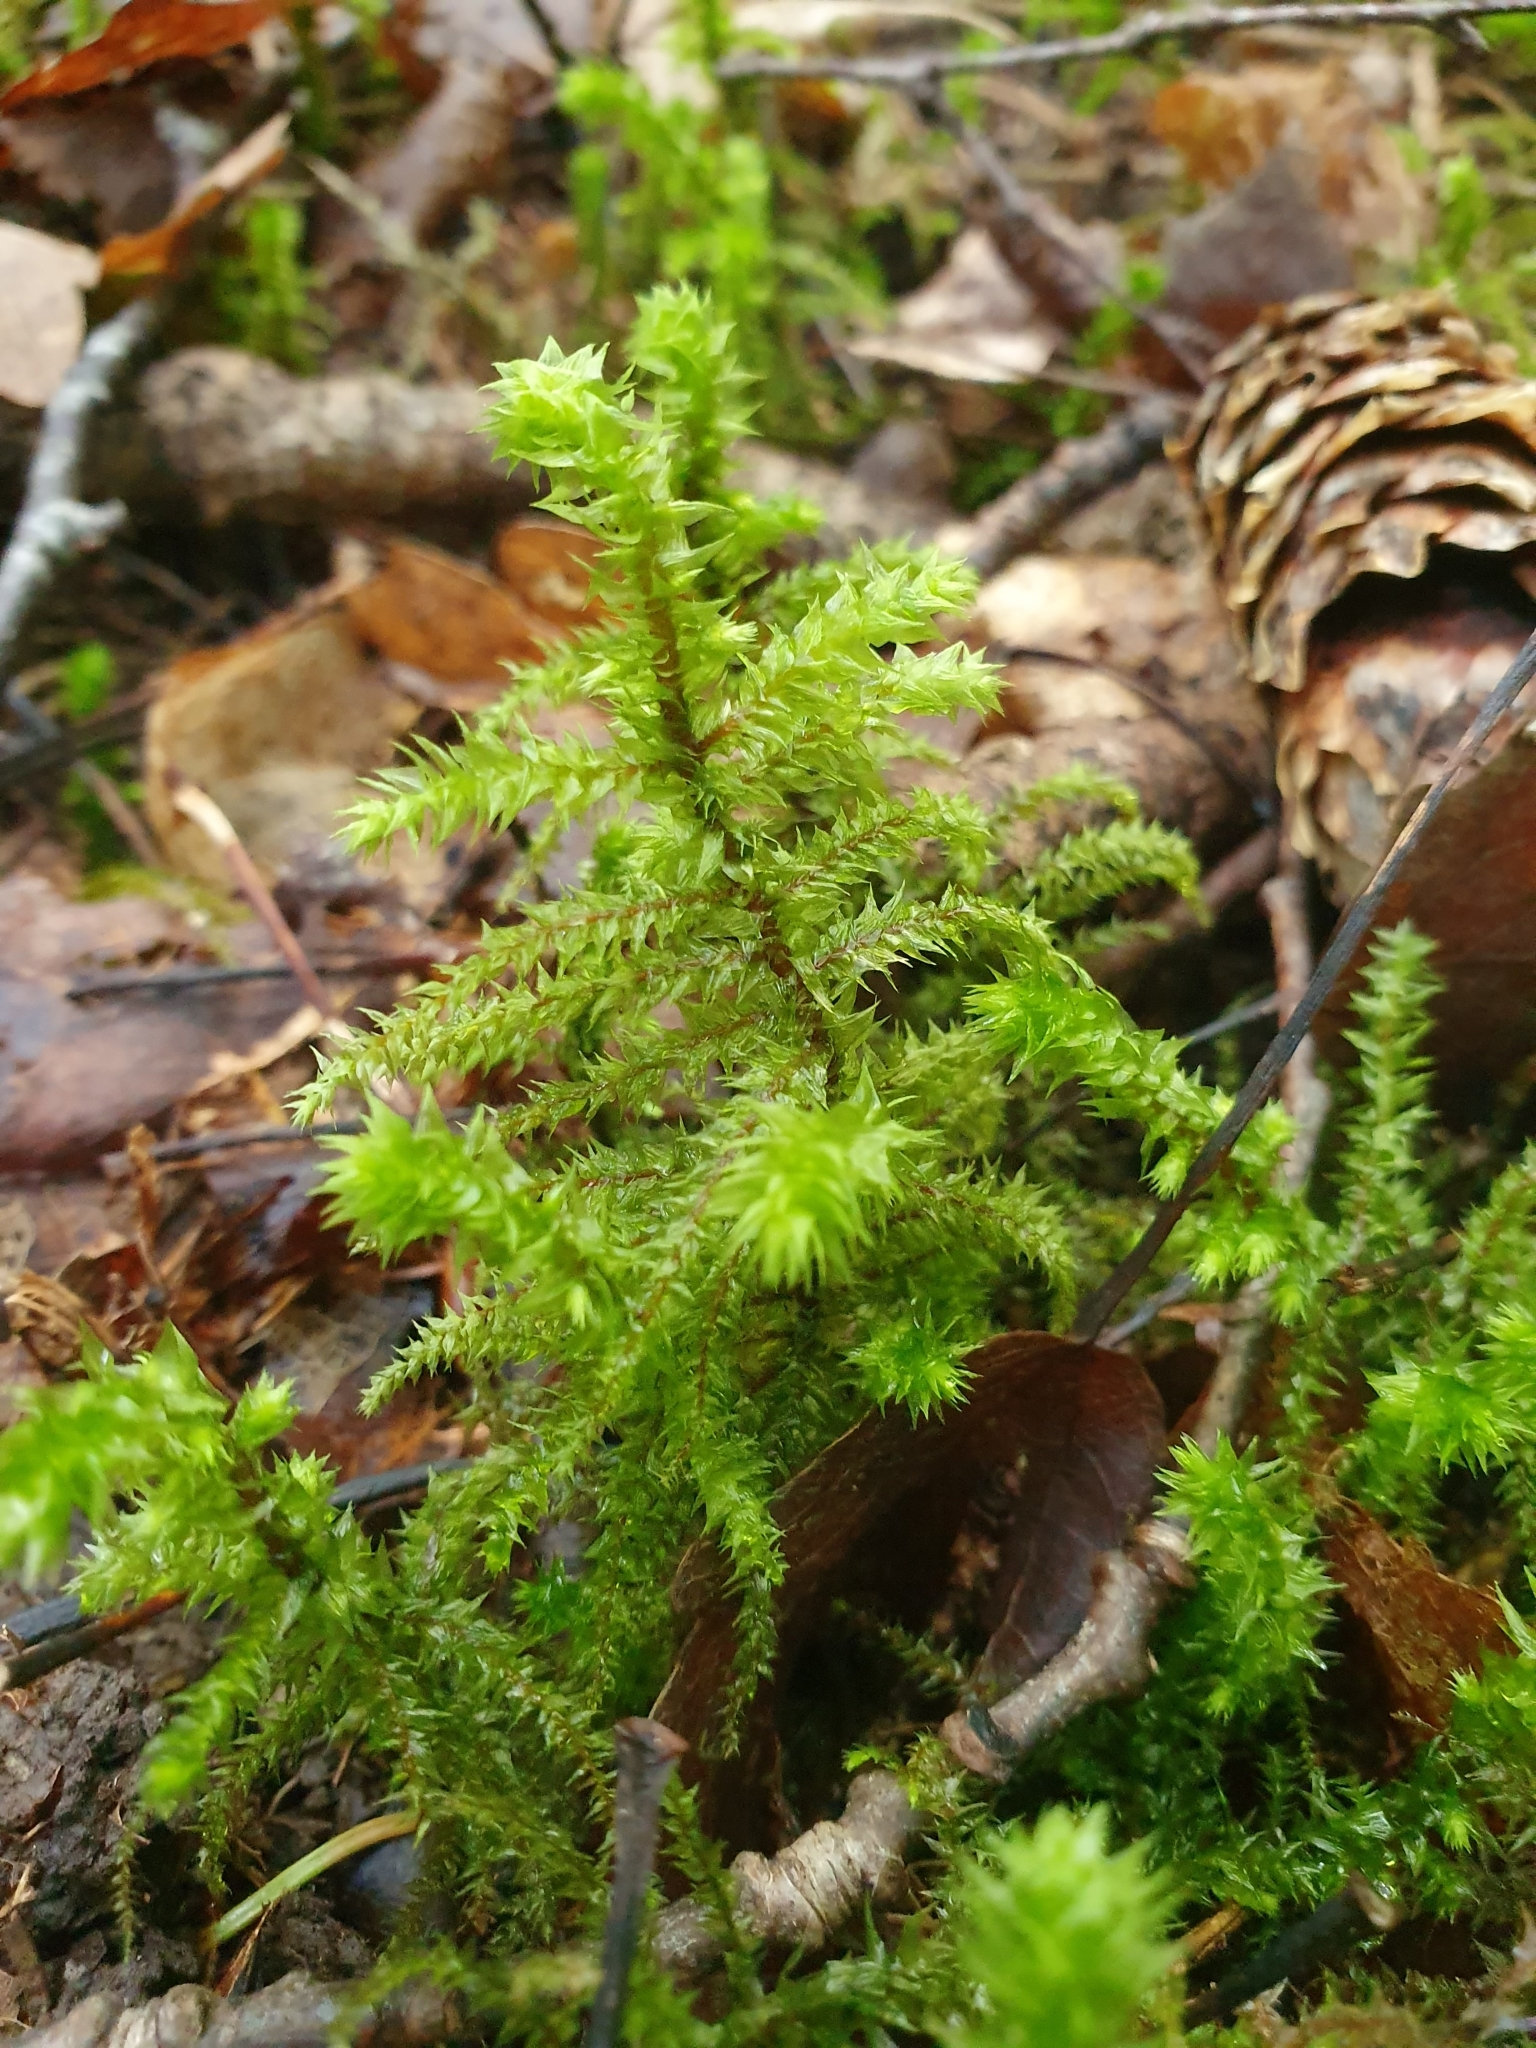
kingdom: Plantae
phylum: Bryophyta
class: Bryopsida
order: Hypnales
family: Hylocomiaceae
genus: Hylocomiadelphus
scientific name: Hylocomiadelphus triquetrus
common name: Rough goose neck moss
